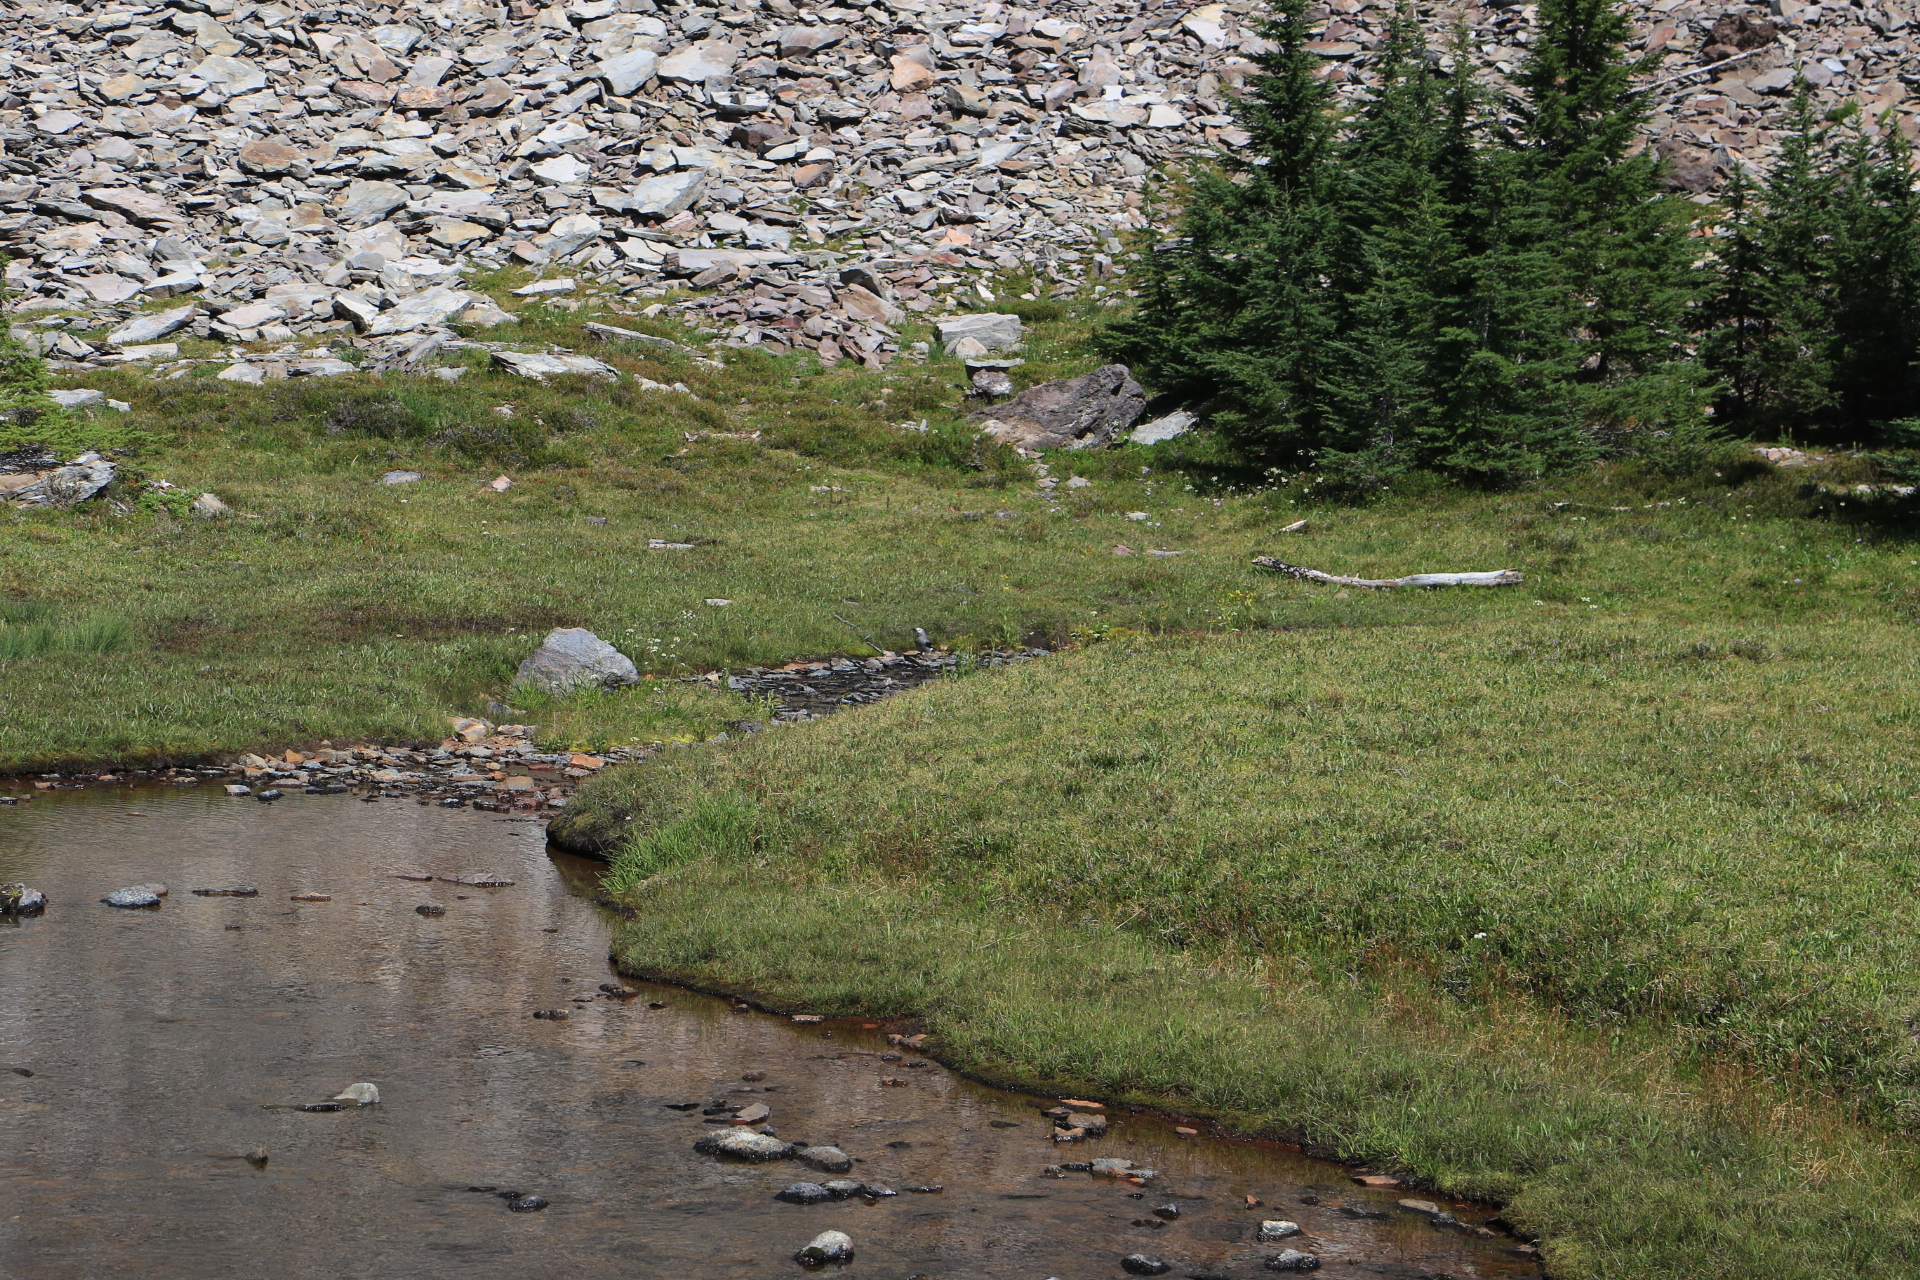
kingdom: Animalia
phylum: Chordata
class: Aves
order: Passeriformes
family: Corvidae
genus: Nucifraga
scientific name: Nucifraga columbiana
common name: Clark's nutcracker
